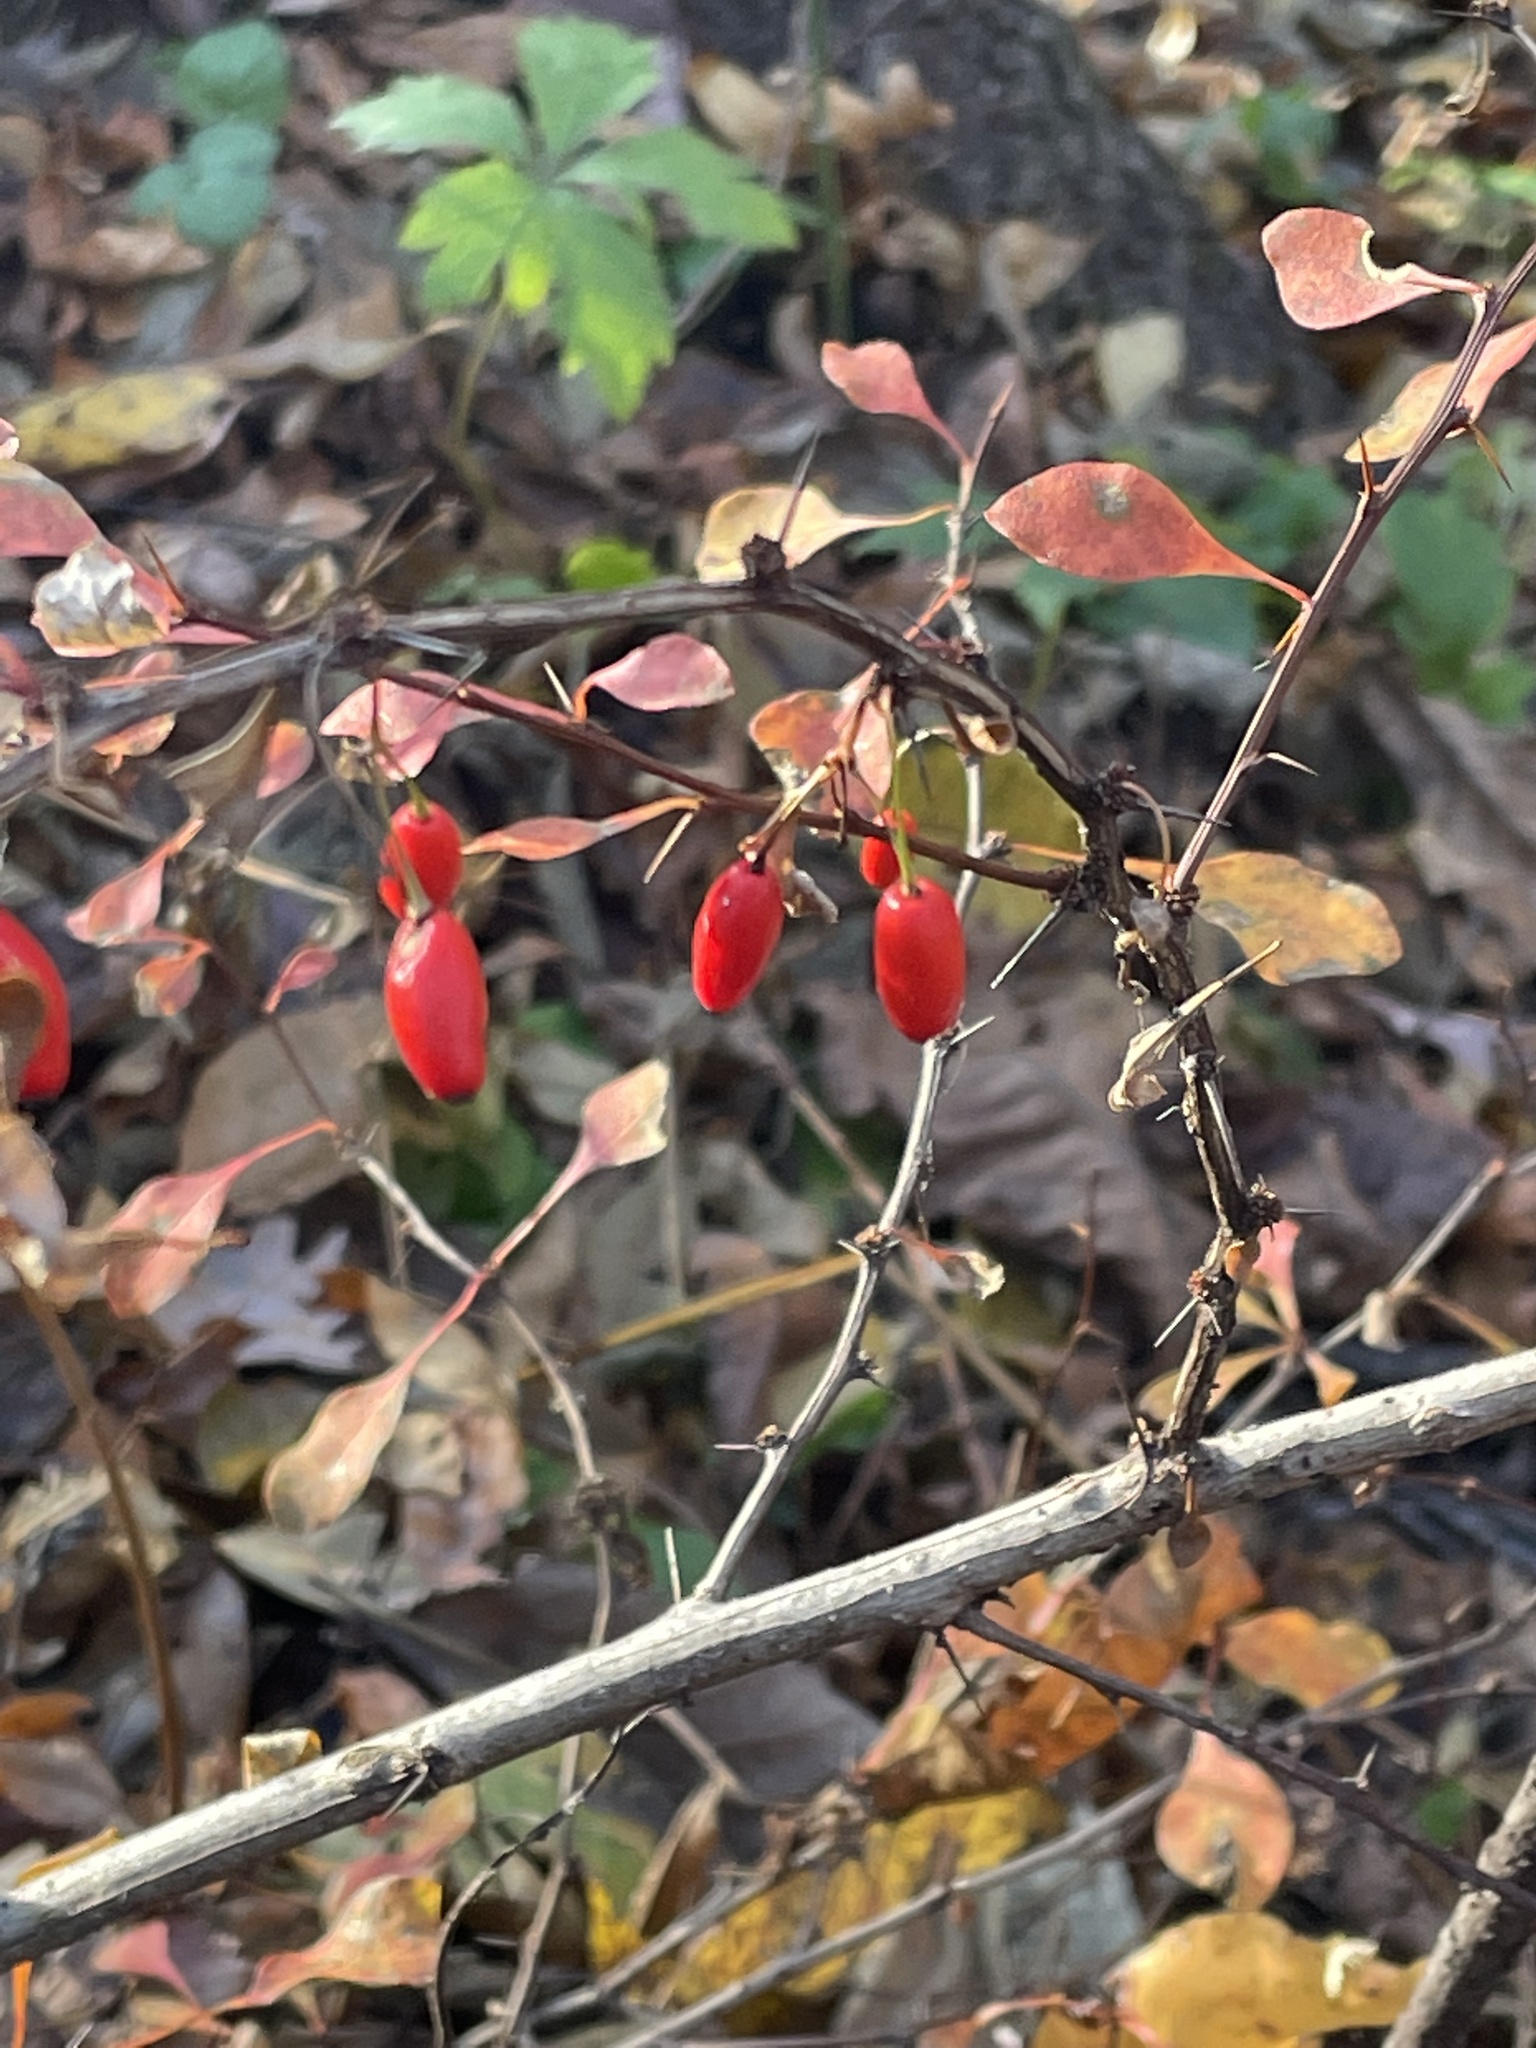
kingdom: Plantae
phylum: Tracheophyta
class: Magnoliopsida
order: Ranunculales
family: Berberidaceae
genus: Berberis
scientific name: Berberis thunbergii
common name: Japanese barberry
